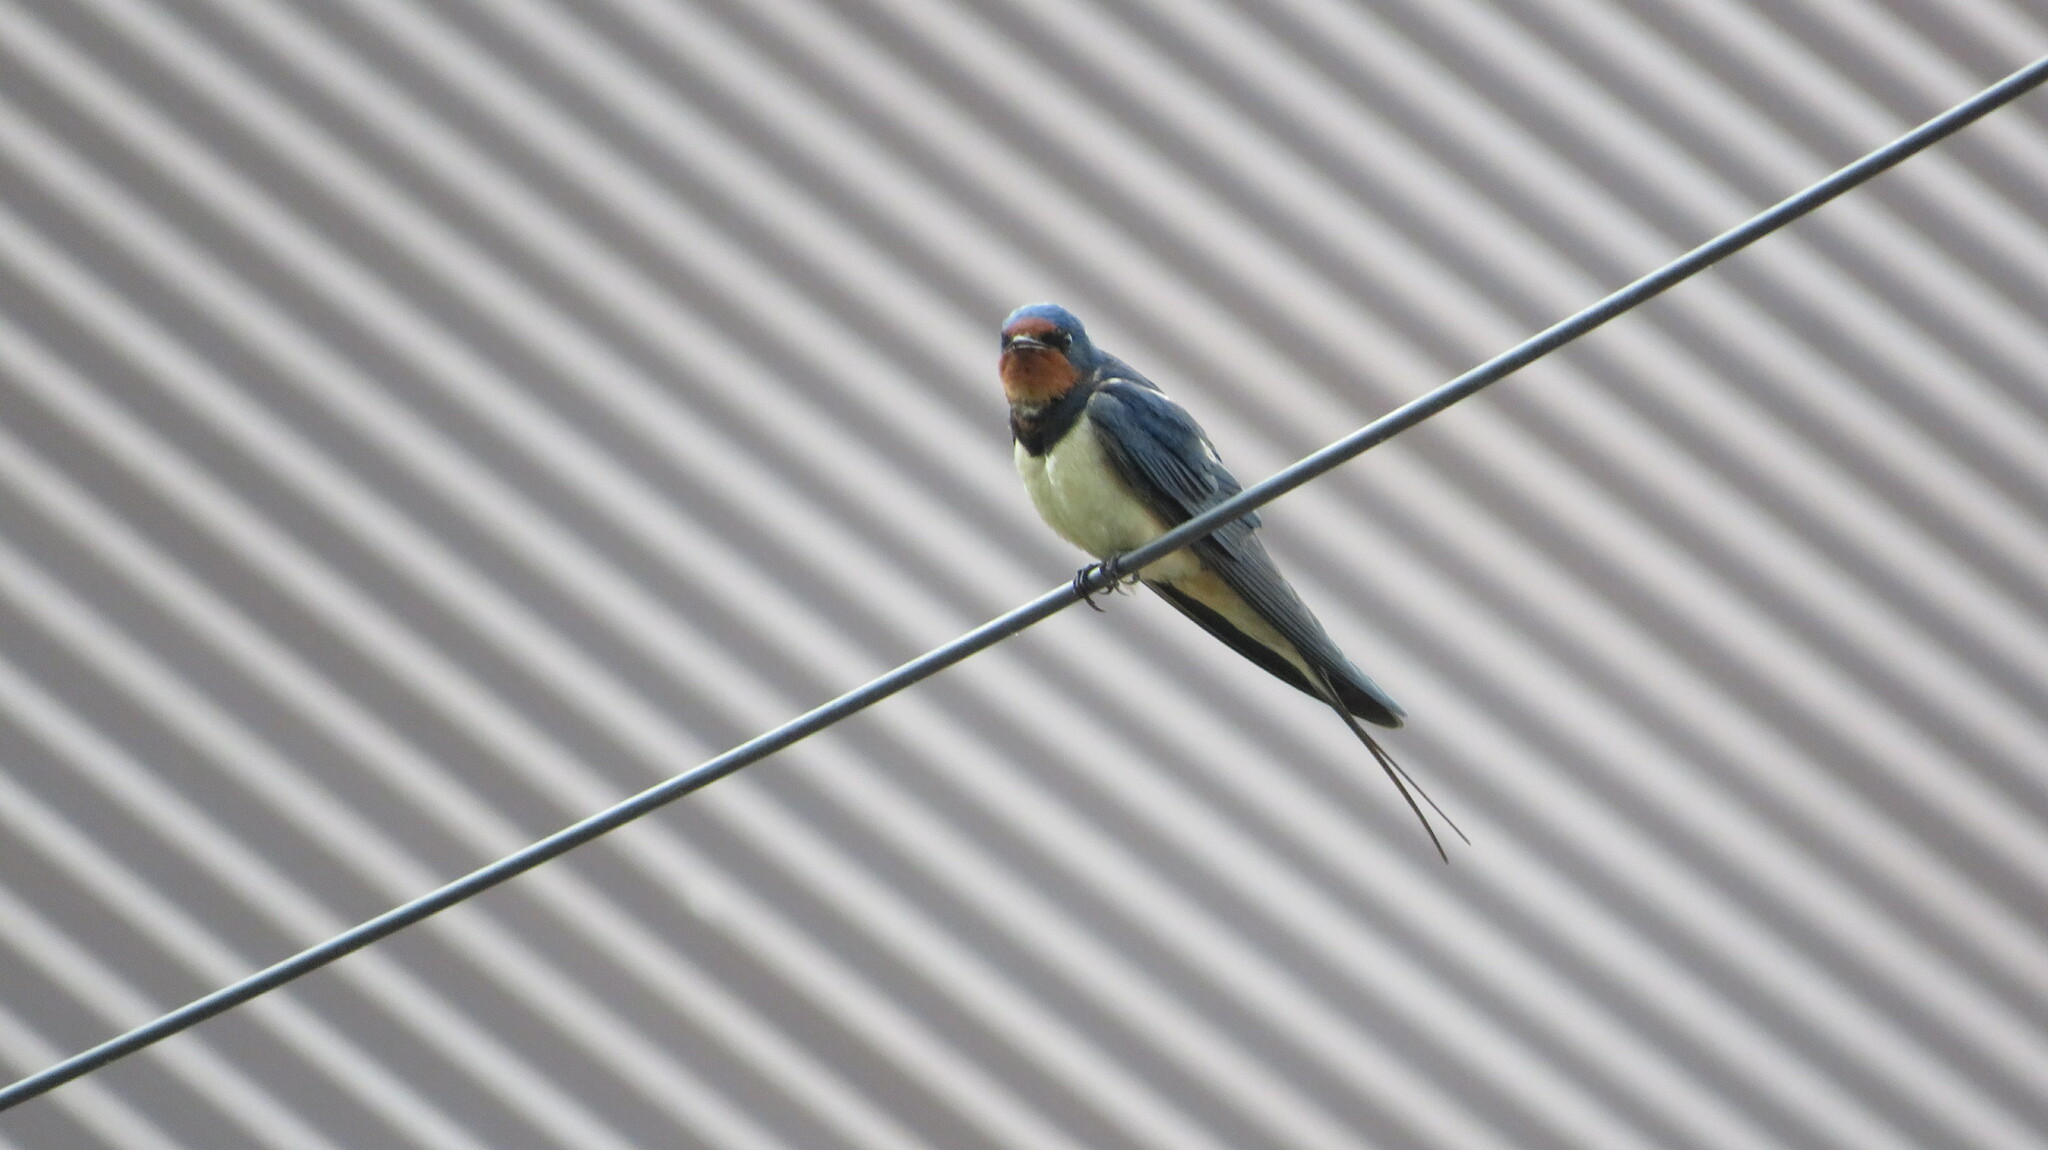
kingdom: Animalia
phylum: Chordata
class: Aves
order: Passeriformes
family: Hirundinidae
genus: Hirundo
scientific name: Hirundo rustica
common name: Barn swallow
